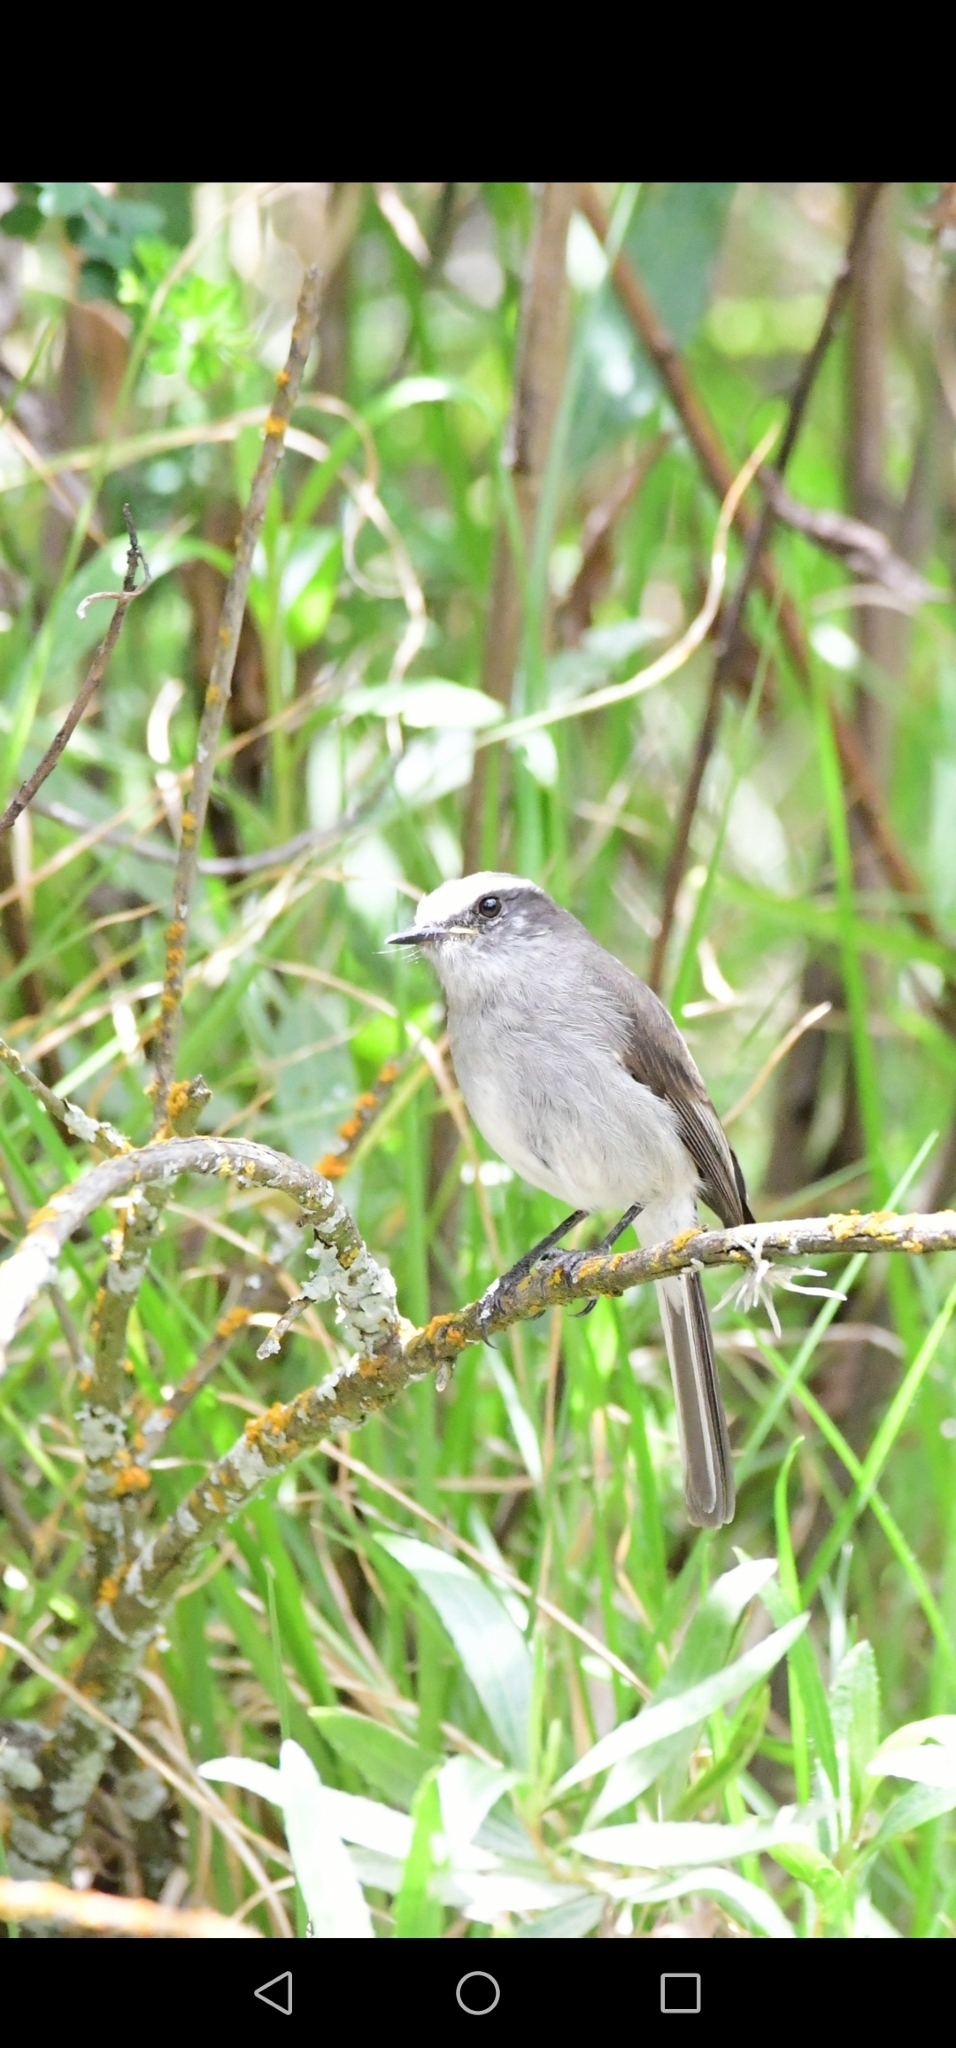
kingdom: Animalia
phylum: Chordata
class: Aves
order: Passeriformes
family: Tyrannidae
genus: Ochthoeca
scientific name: Ochthoeca leucophrys
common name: White-browed chat-tyrant
